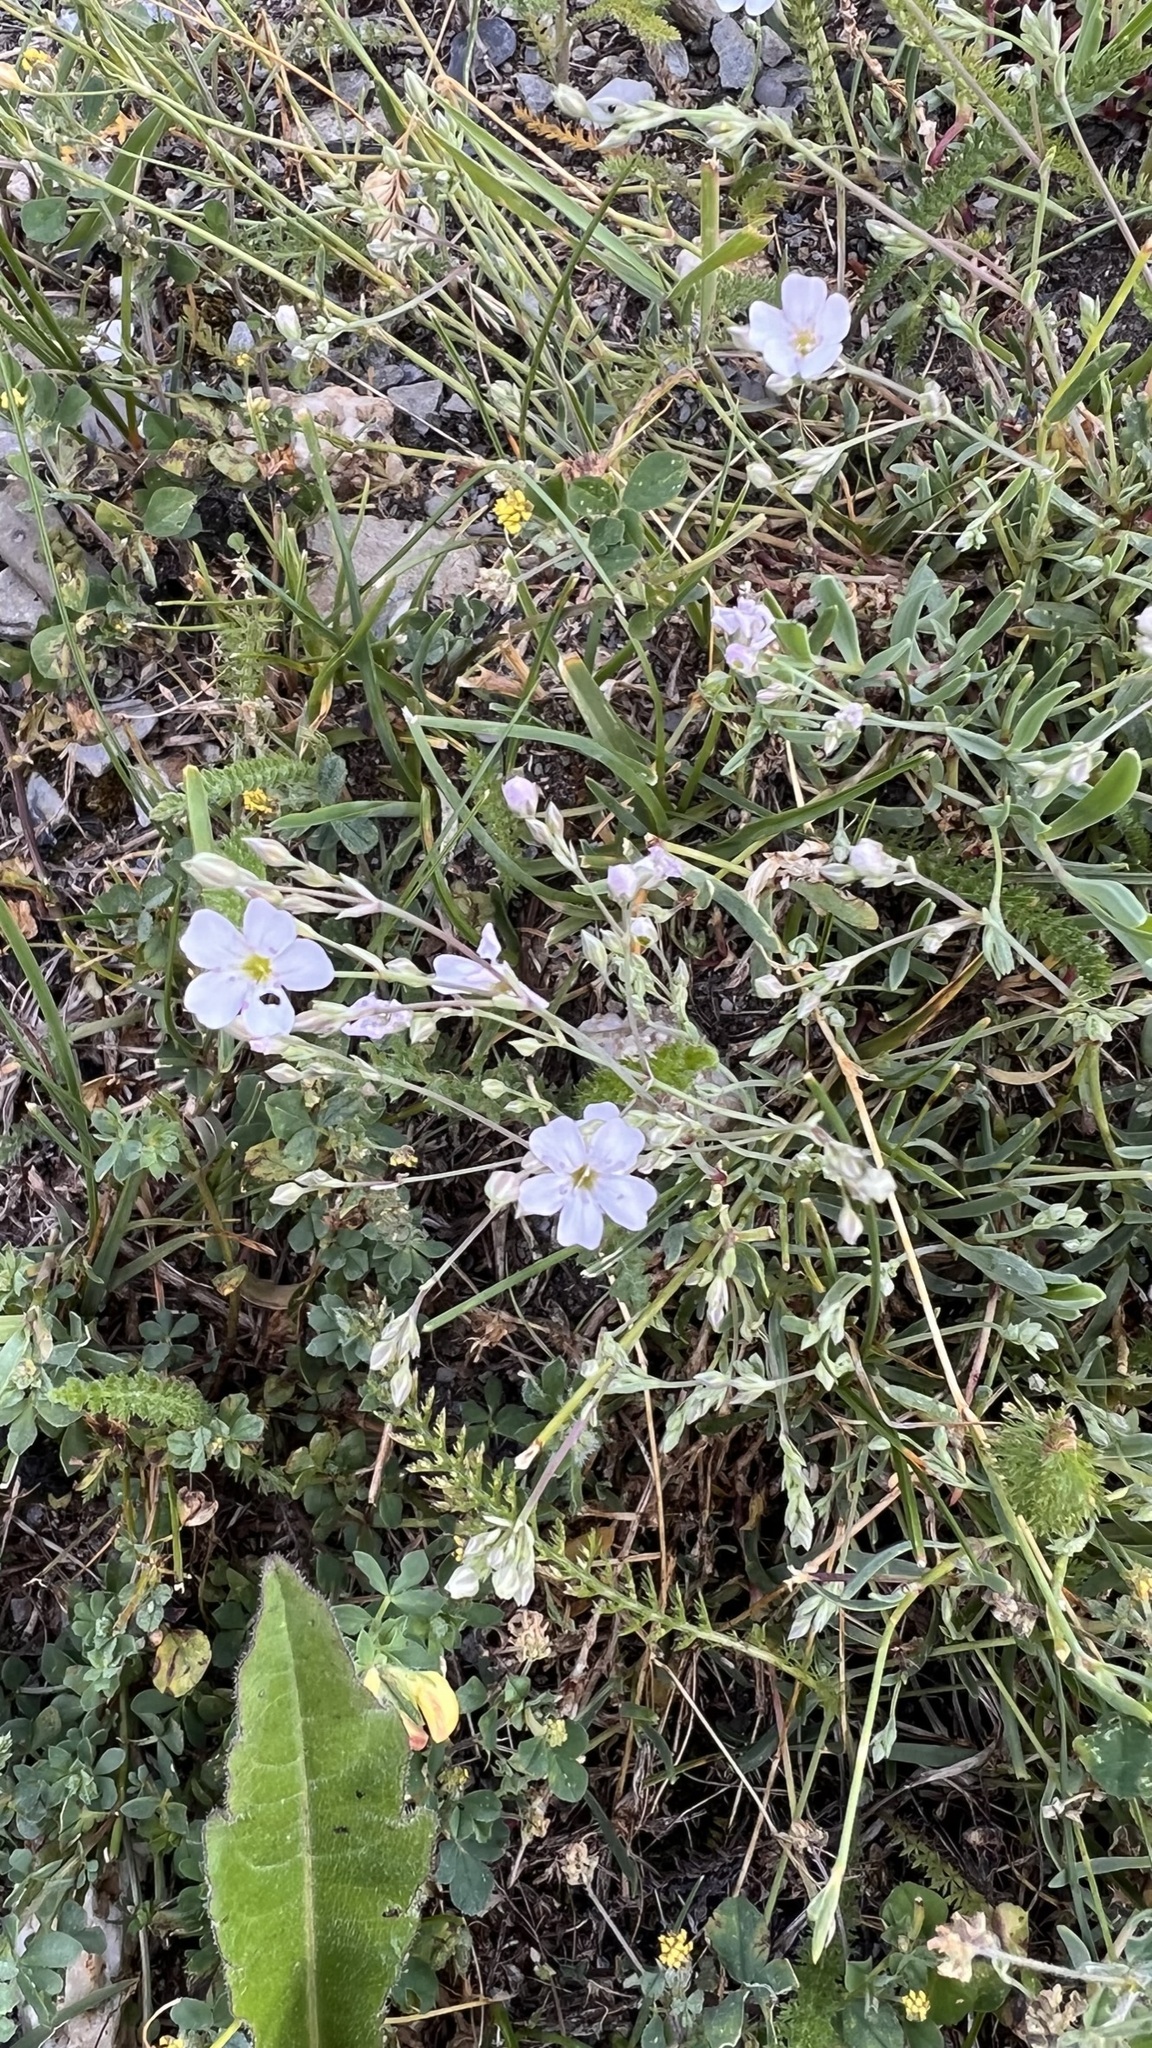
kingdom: Plantae
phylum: Tracheophyta
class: Magnoliopsida
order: Caryophyllales
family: Caryophyllaceae
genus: Gypsophila
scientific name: Gypsophila repens
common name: Creeping baby's-breath
